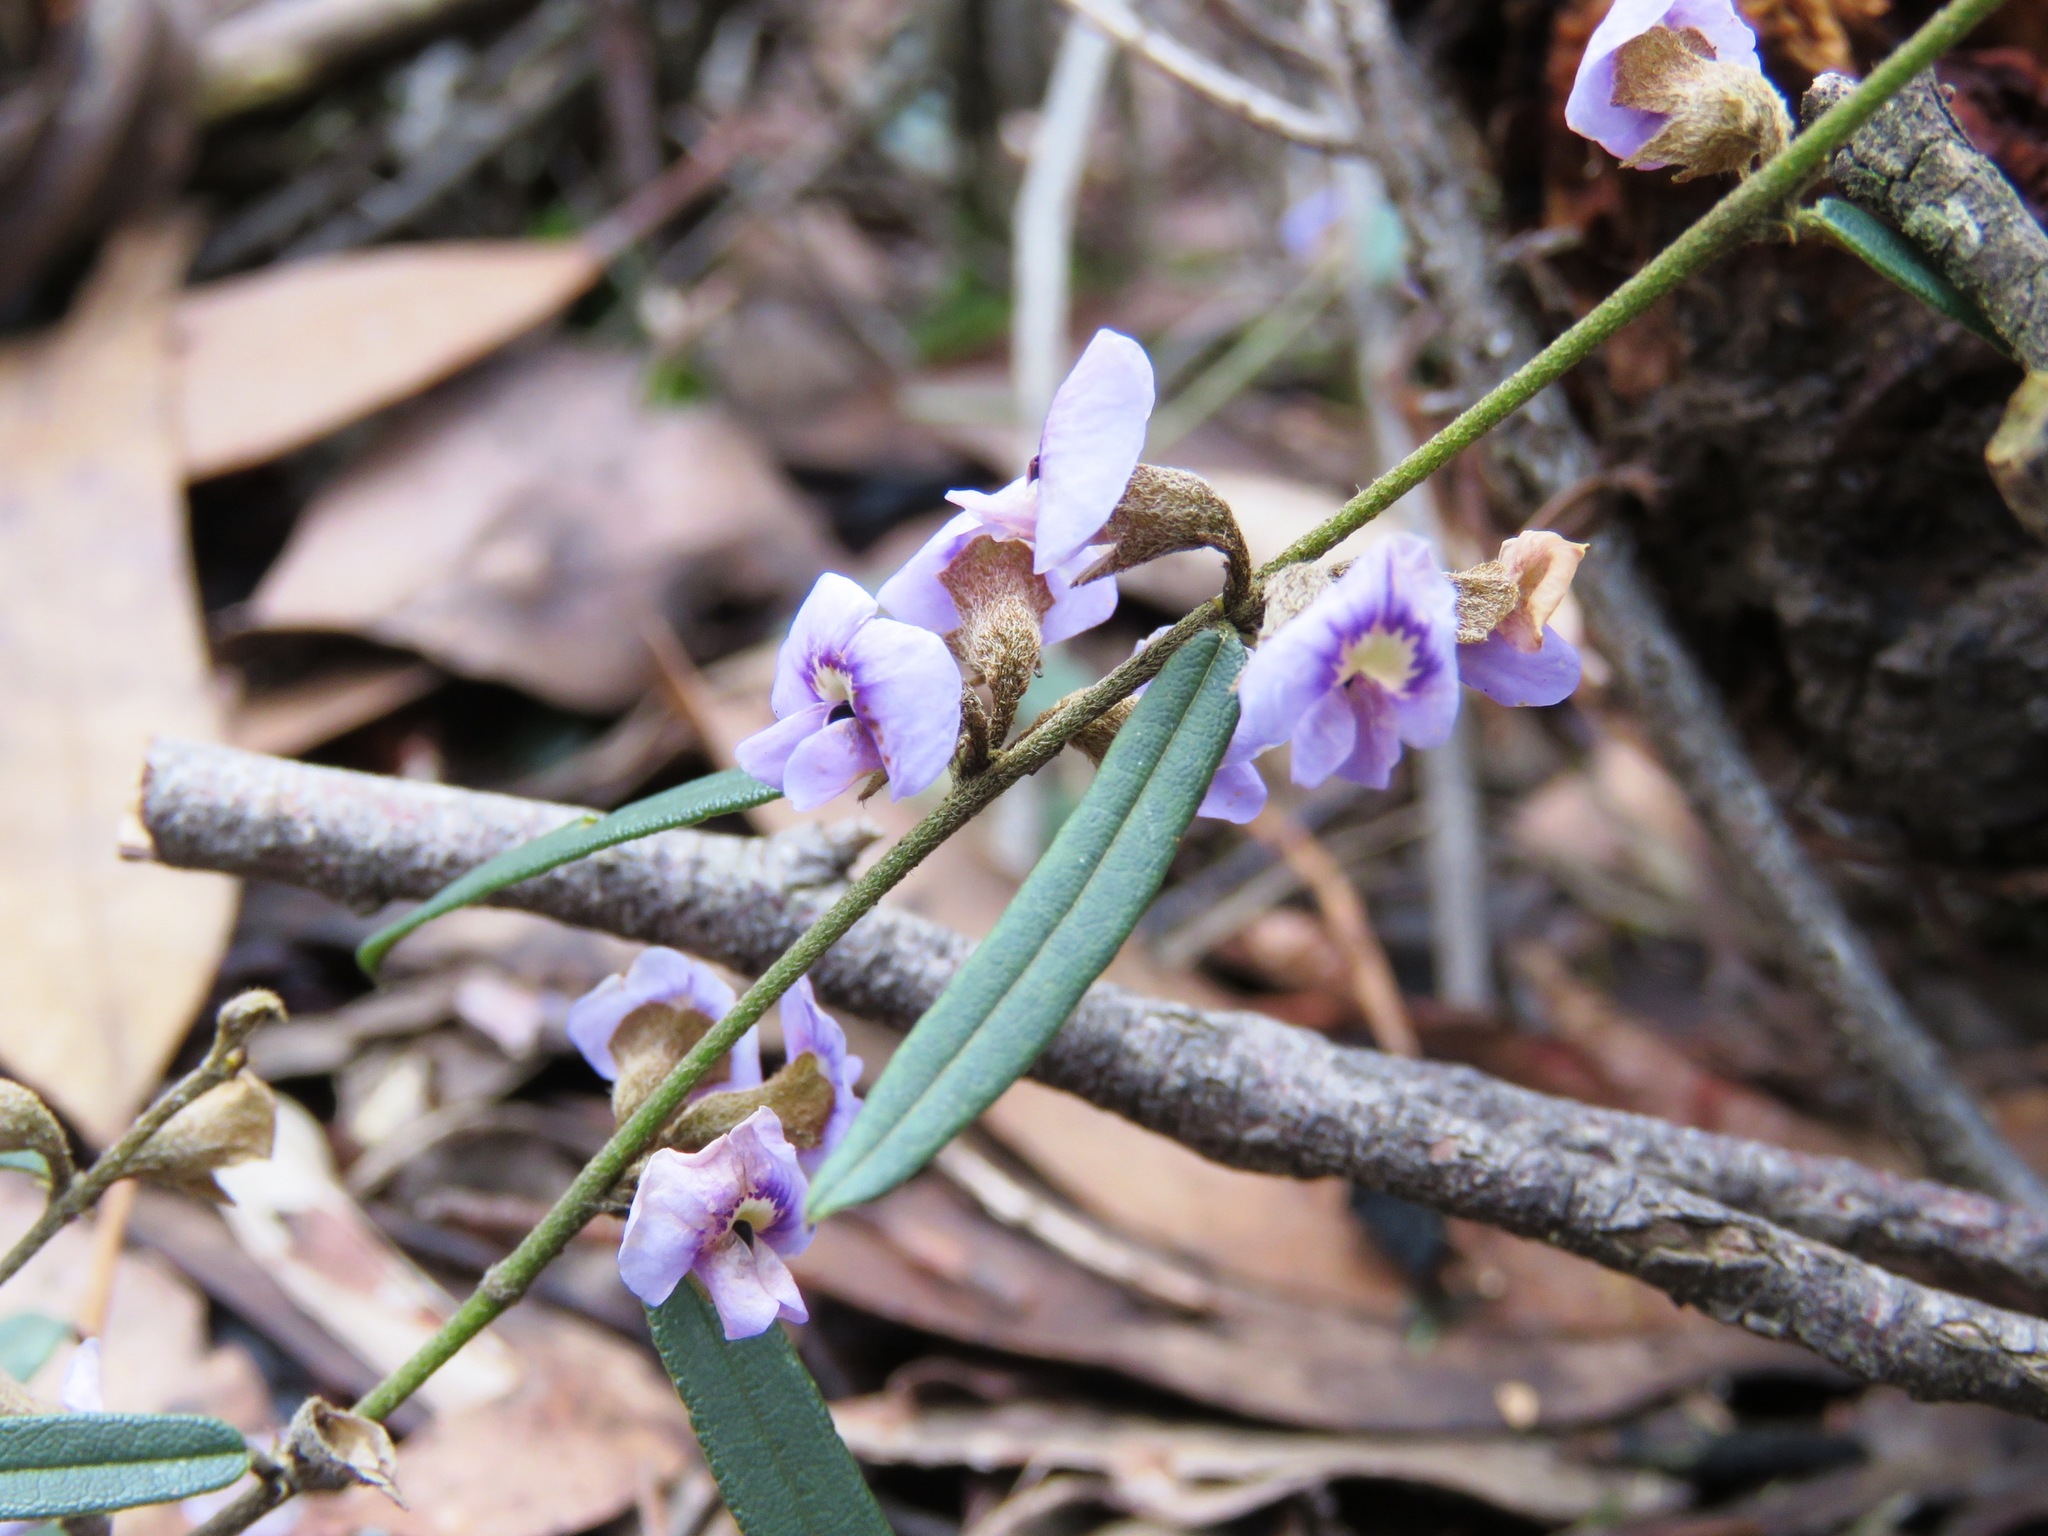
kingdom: Plantae
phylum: Tracheophyta
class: Magnoliopsida
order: Fabales
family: Fabaceae
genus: Hovea
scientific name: Hovea heterophylla
